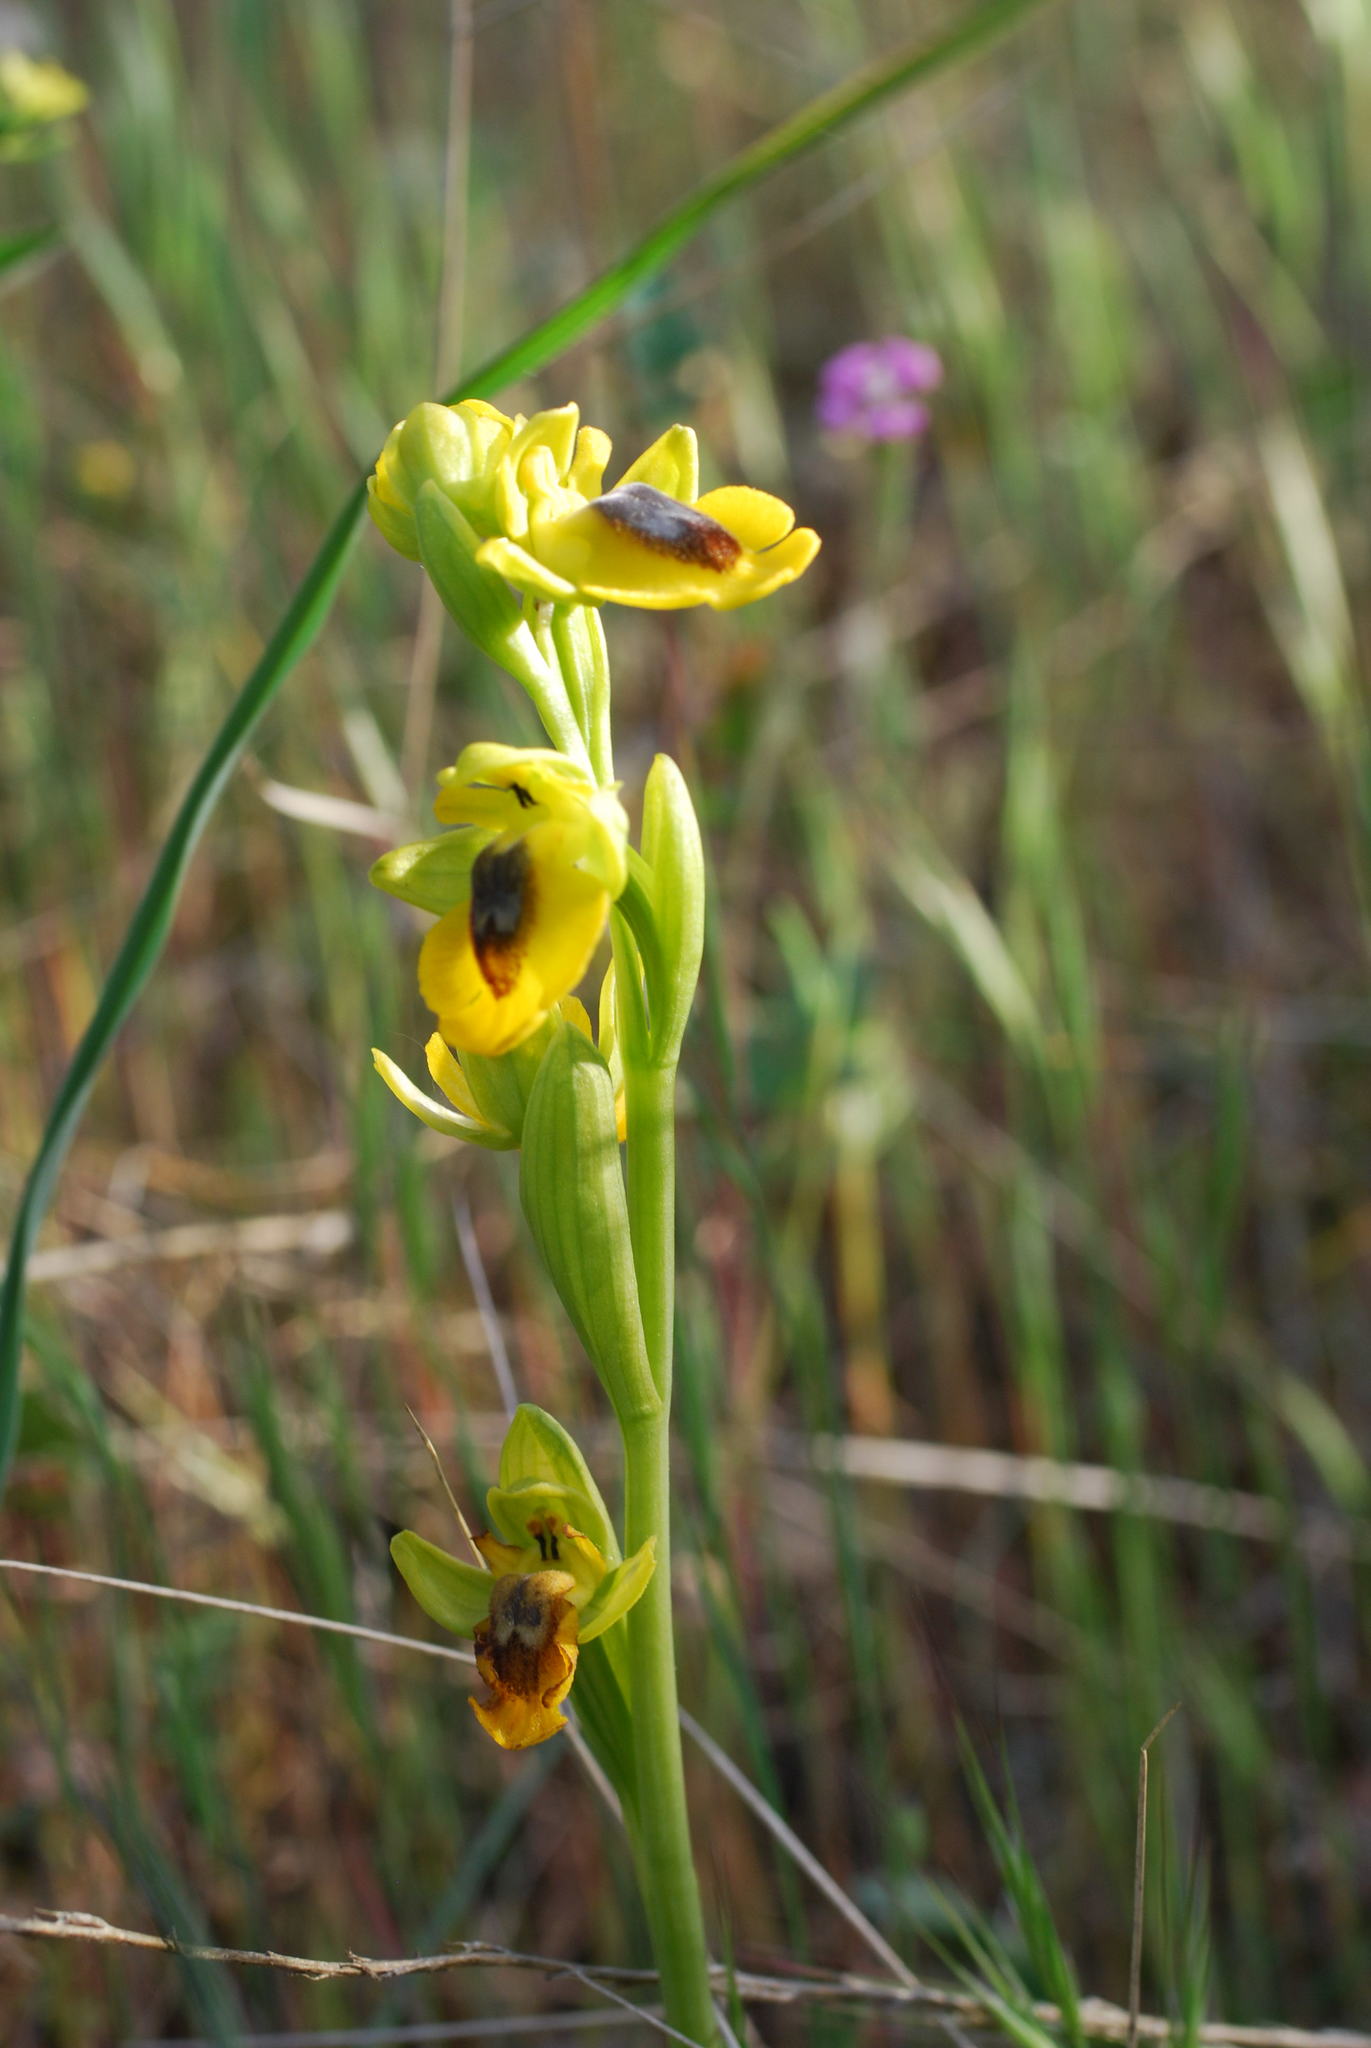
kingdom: Plantae
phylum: Tracheophyta
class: Liliopsida
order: Asparagales
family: Orchidaceae
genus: Ophrys
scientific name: Ophrys lutea
